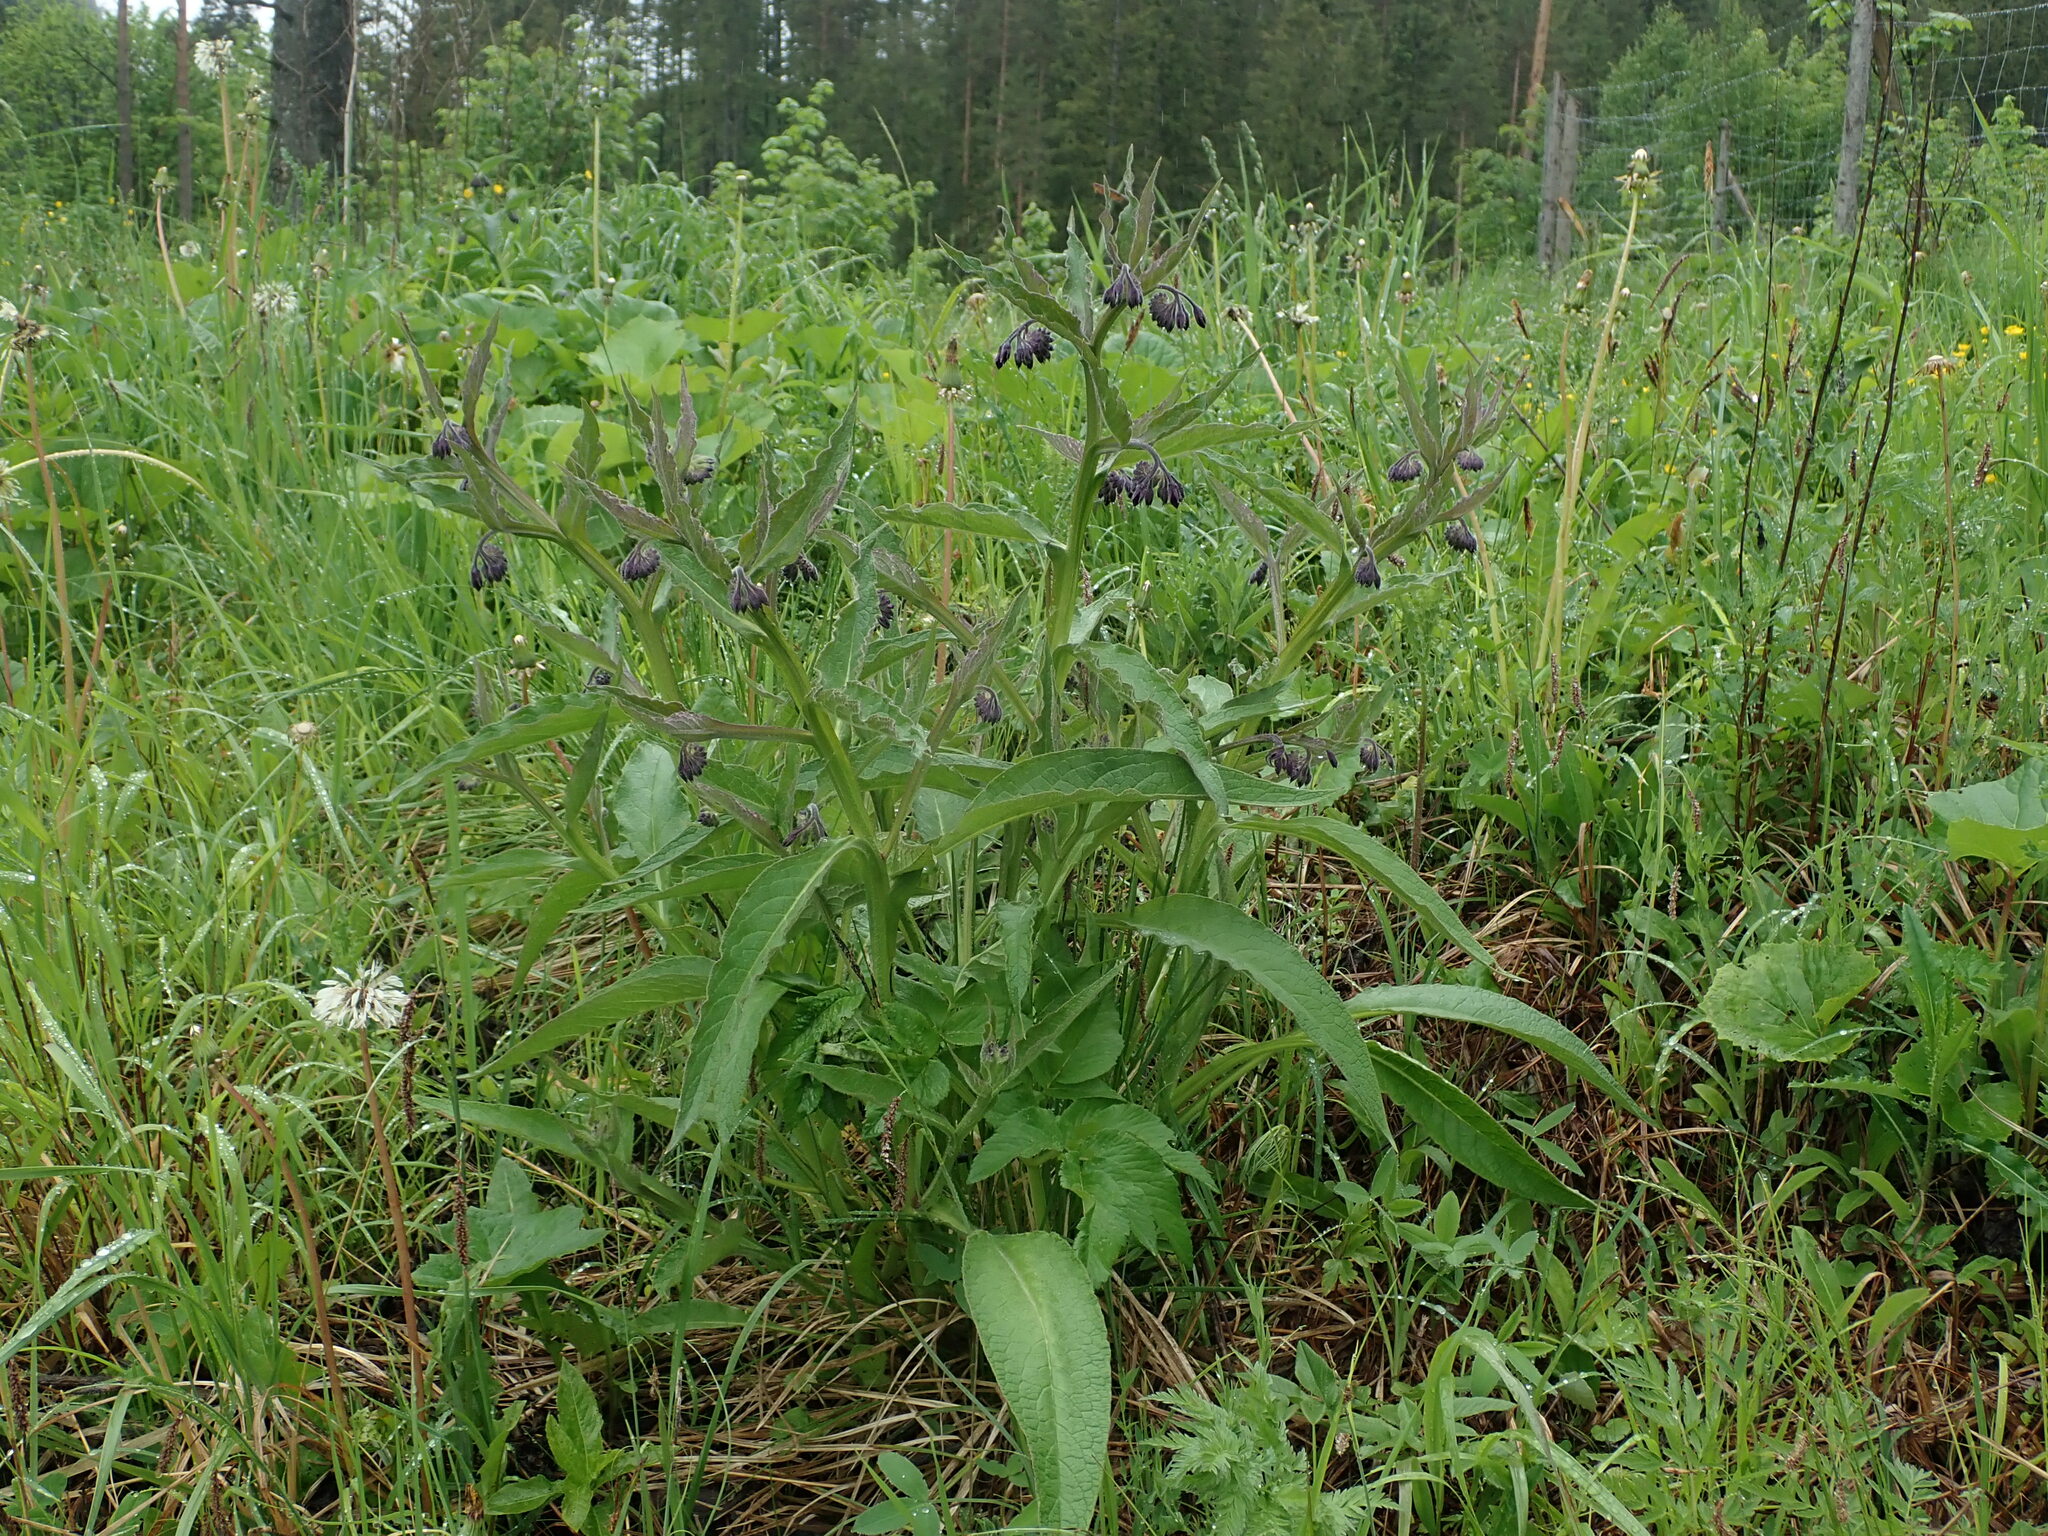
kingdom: Plantae
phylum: Tracheophyta
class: Magnoliopsida
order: Boraginales
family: Boraginaceae
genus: Symphytum
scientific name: Symphytum officinale
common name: Common comfrey
